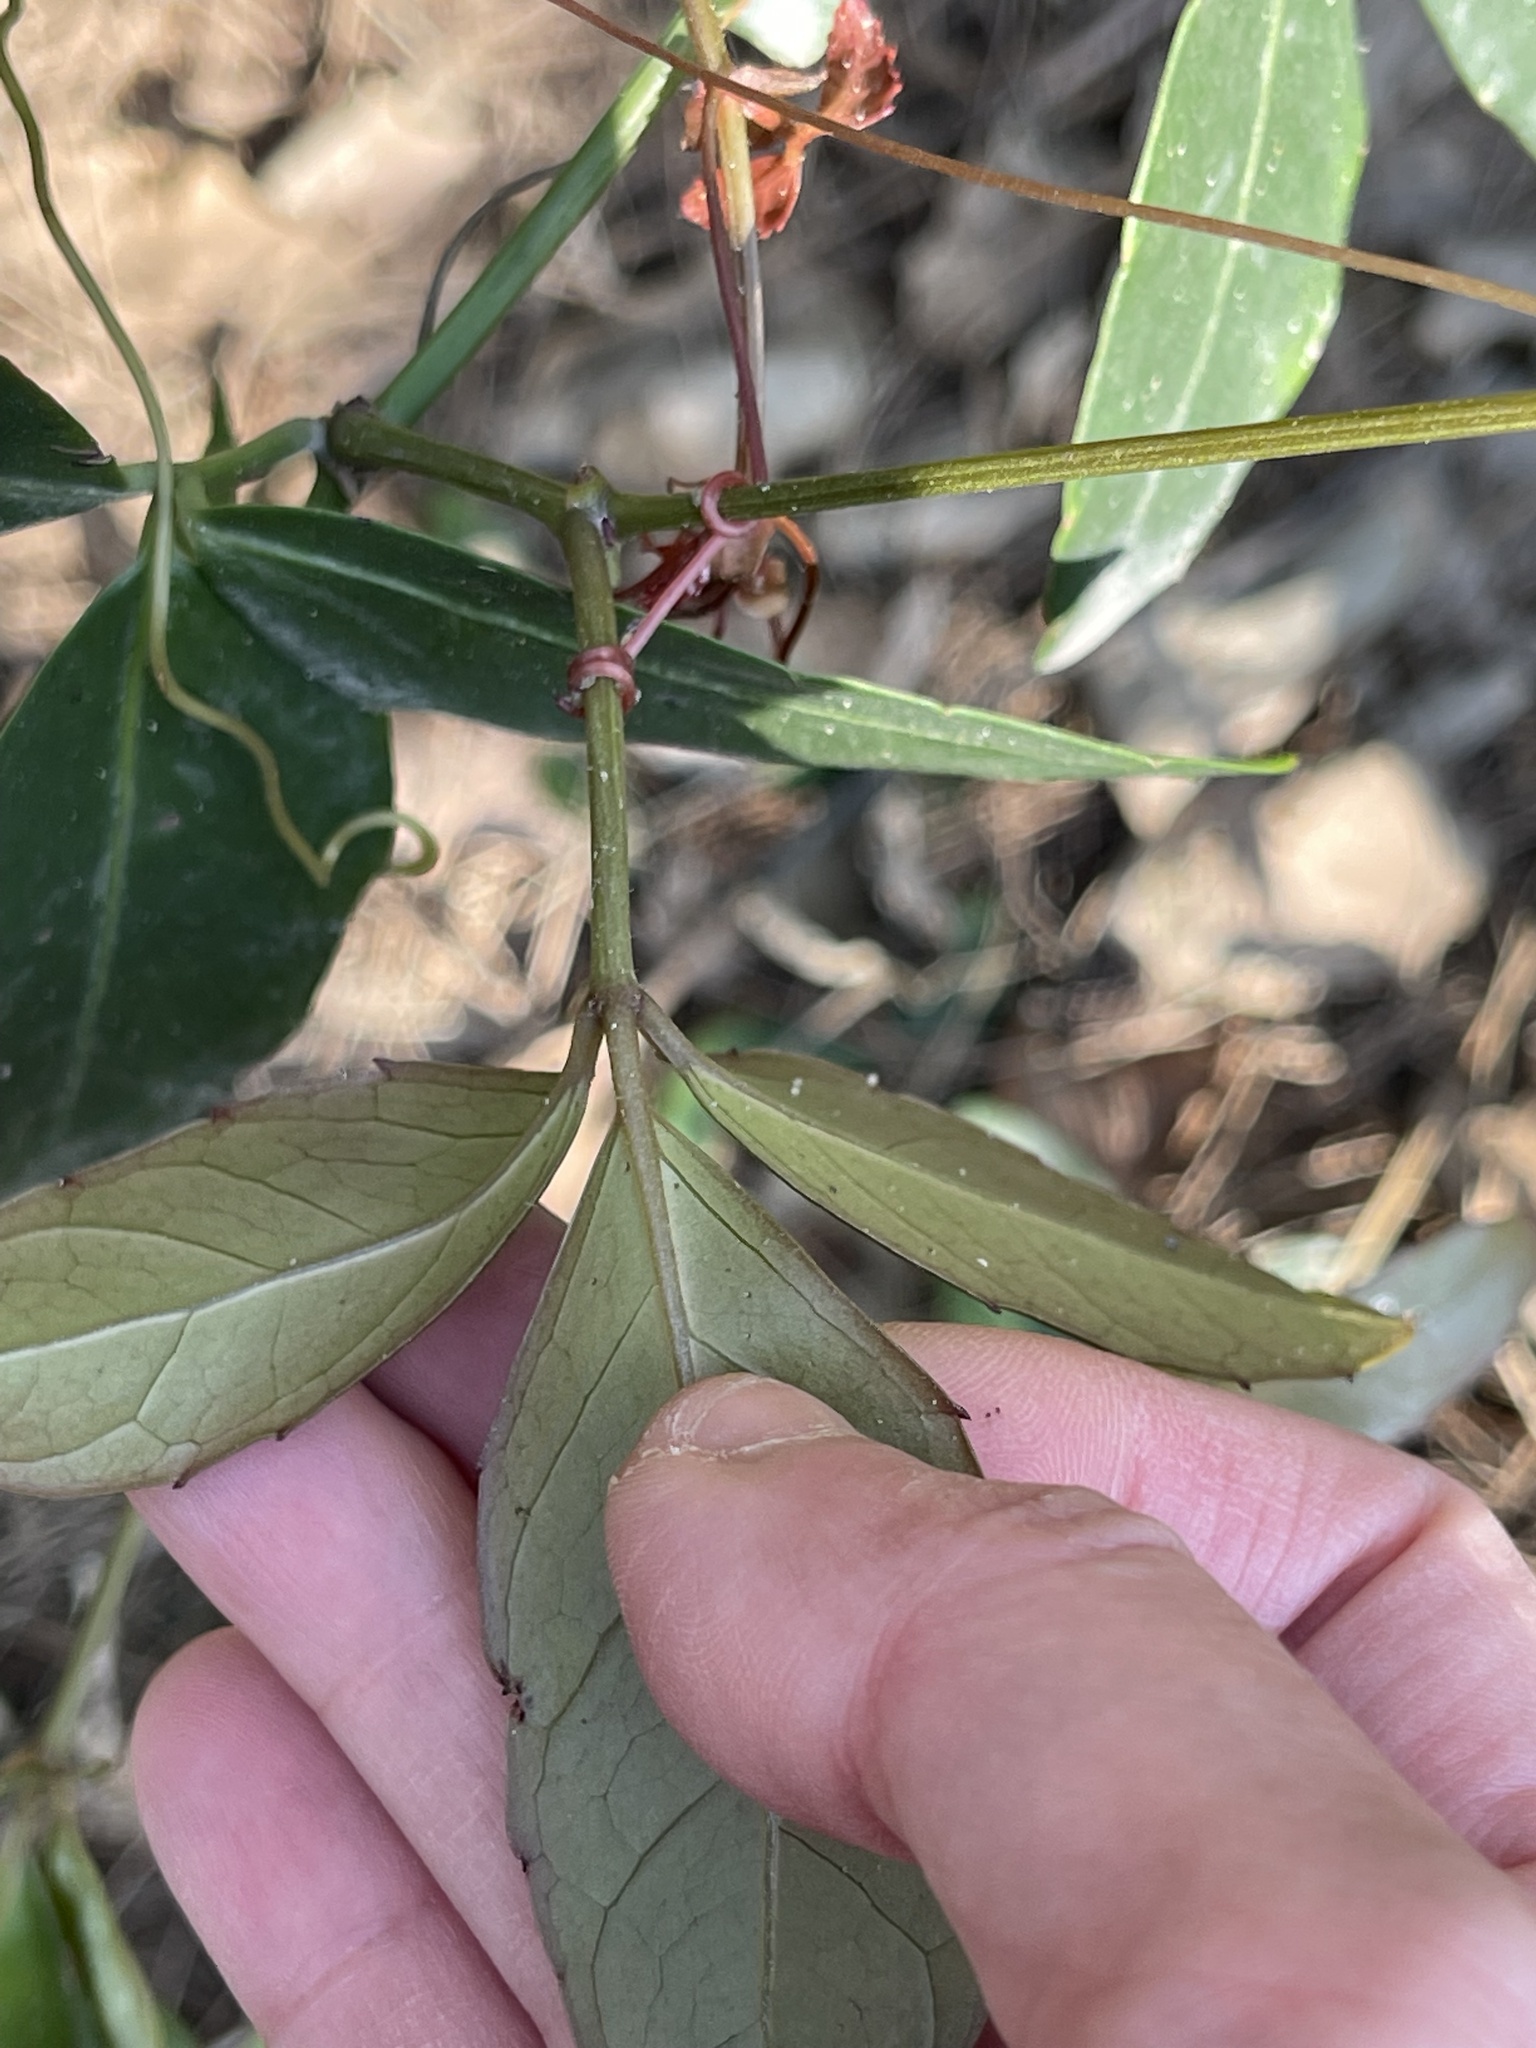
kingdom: Plantae
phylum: Tracheophyta
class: Magnoliopsida
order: Vitales
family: Vitaceae
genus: Tetrastigma
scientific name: Tetrastigma formosanum
